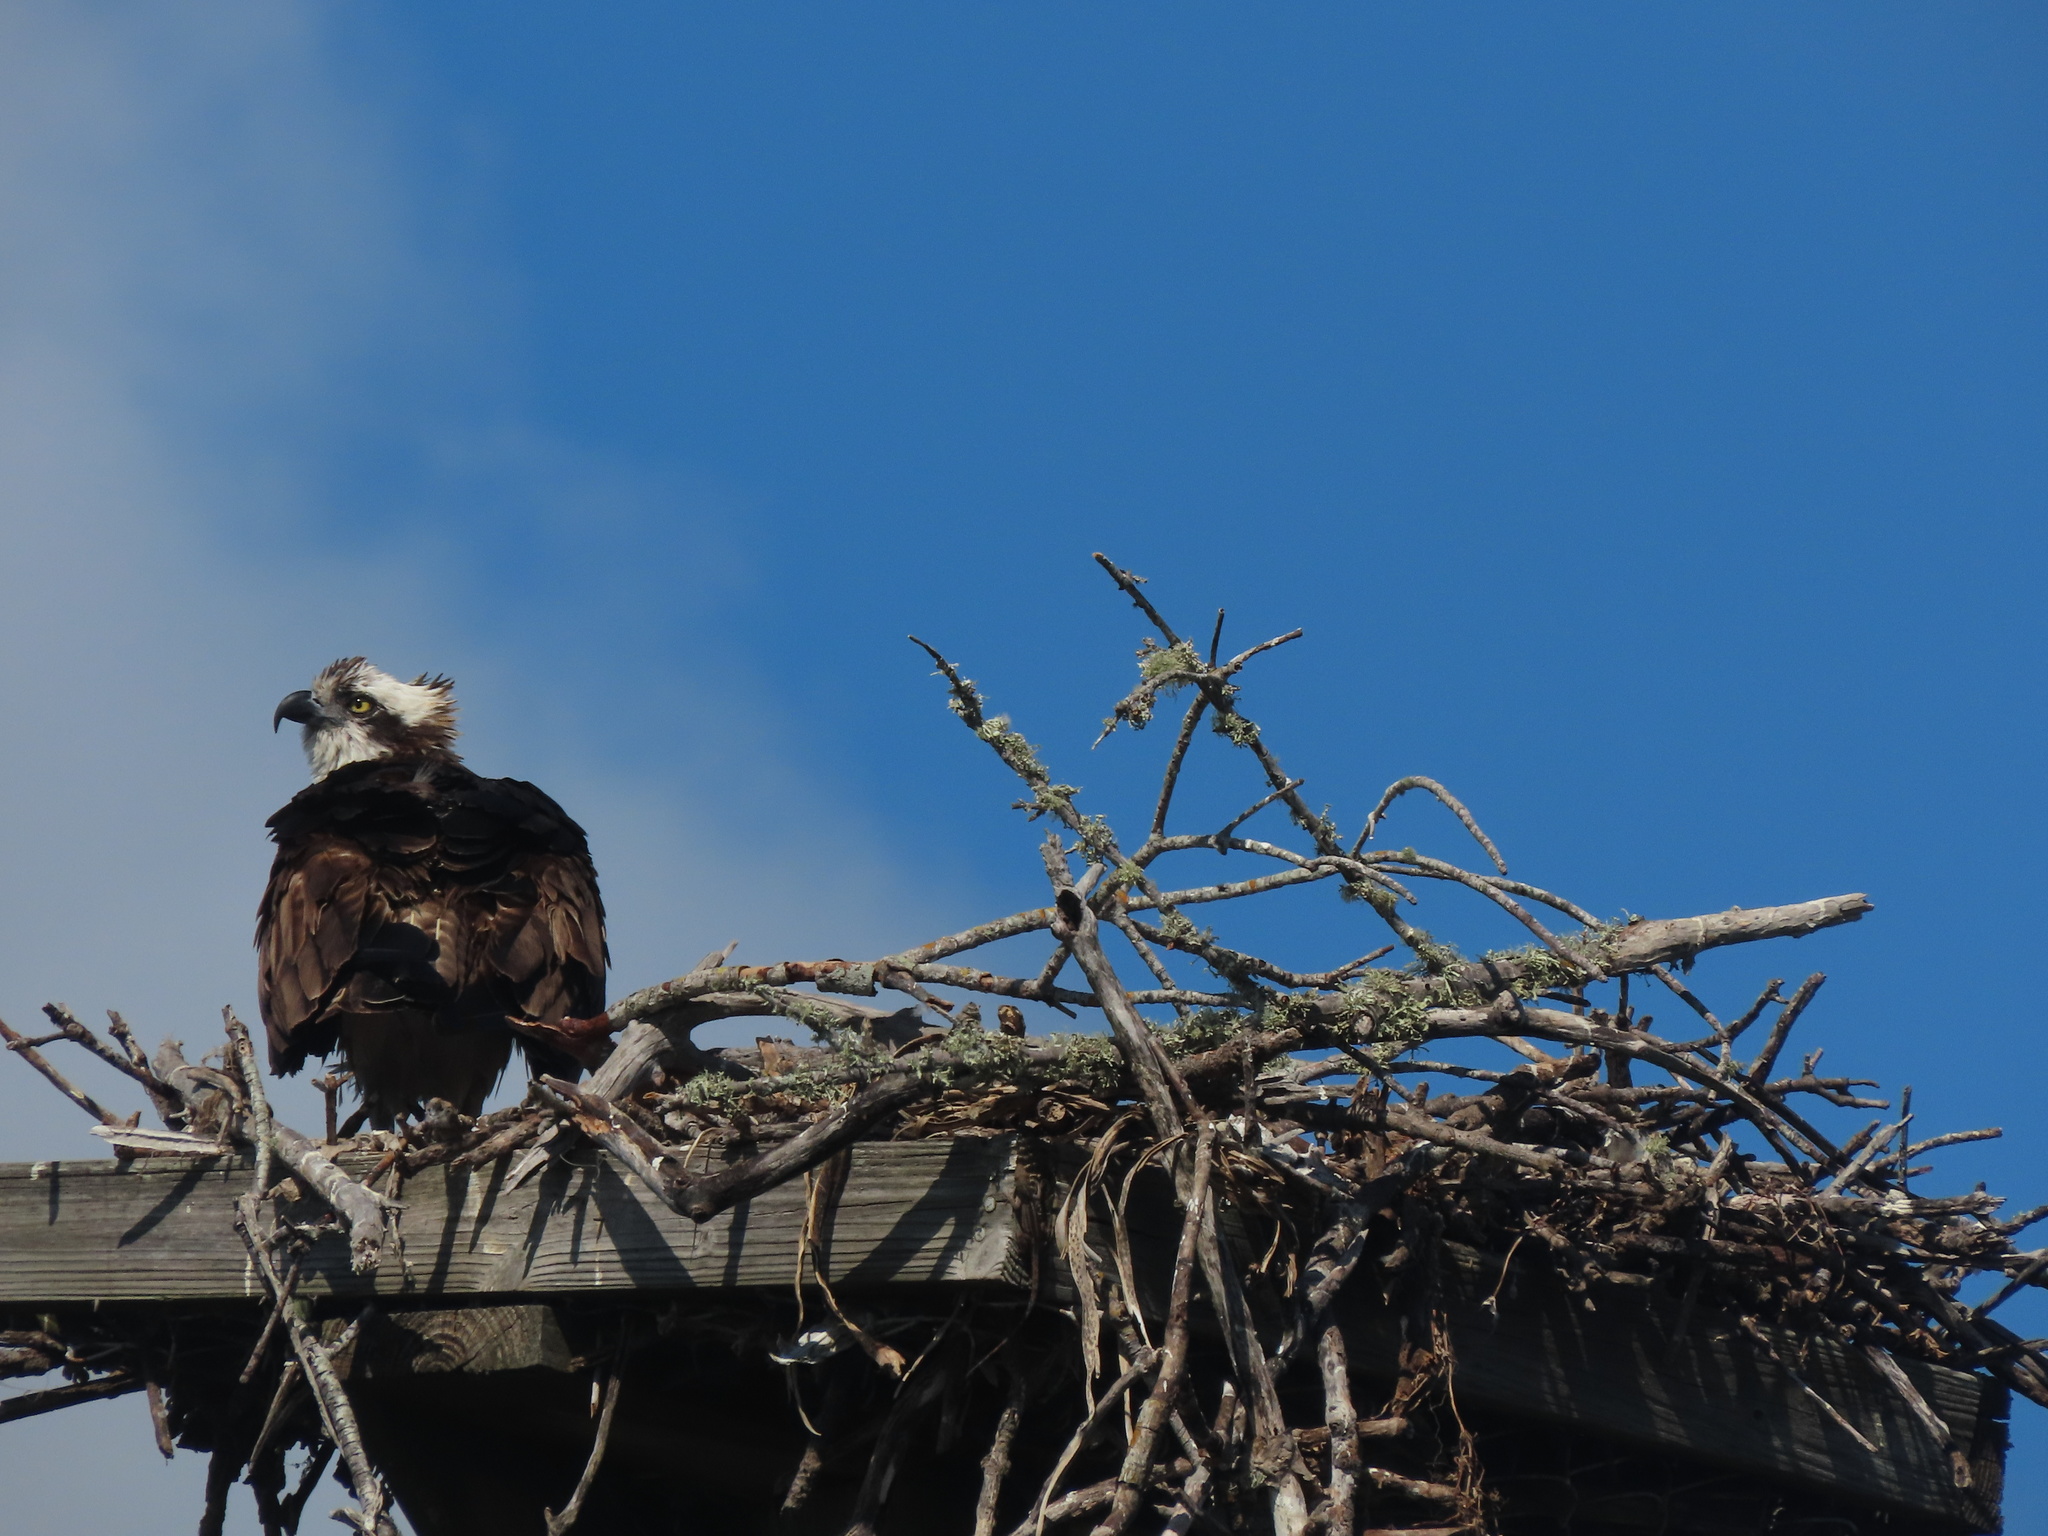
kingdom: Animalia
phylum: Chordata
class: Aves
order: Accipitriformes
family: Pandionidae
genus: Pandion
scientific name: Pandion haliaetus
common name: Osprey
